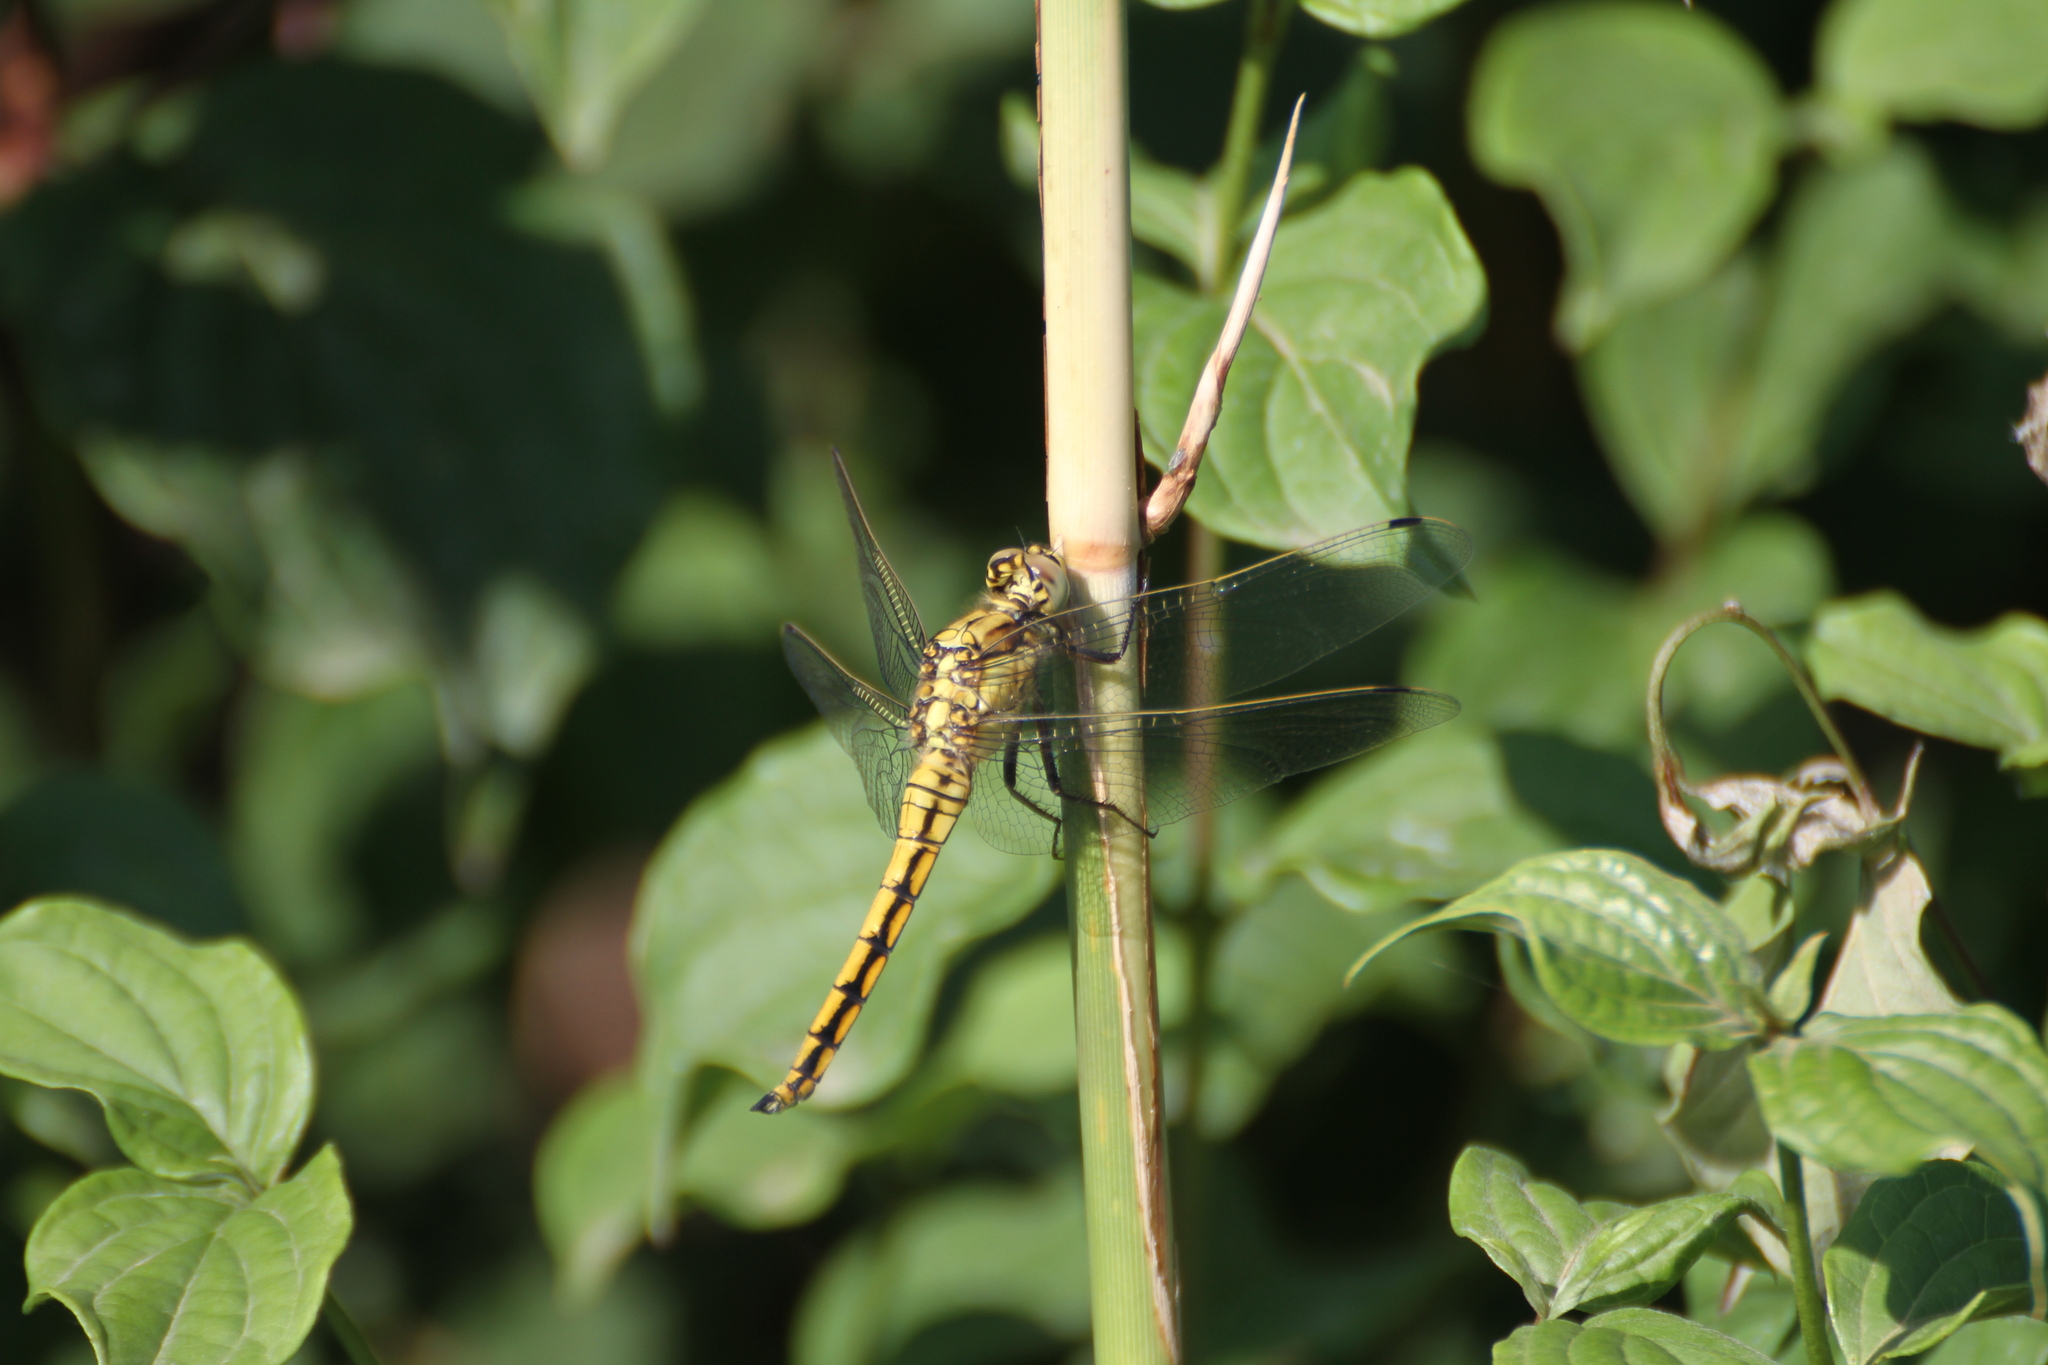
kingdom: Animalia
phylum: Arthropoda
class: Insecta
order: Odonata
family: Libellulidae
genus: Orthetrum
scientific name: Orthetrum cancellatum
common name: Black-tailed skimmer
